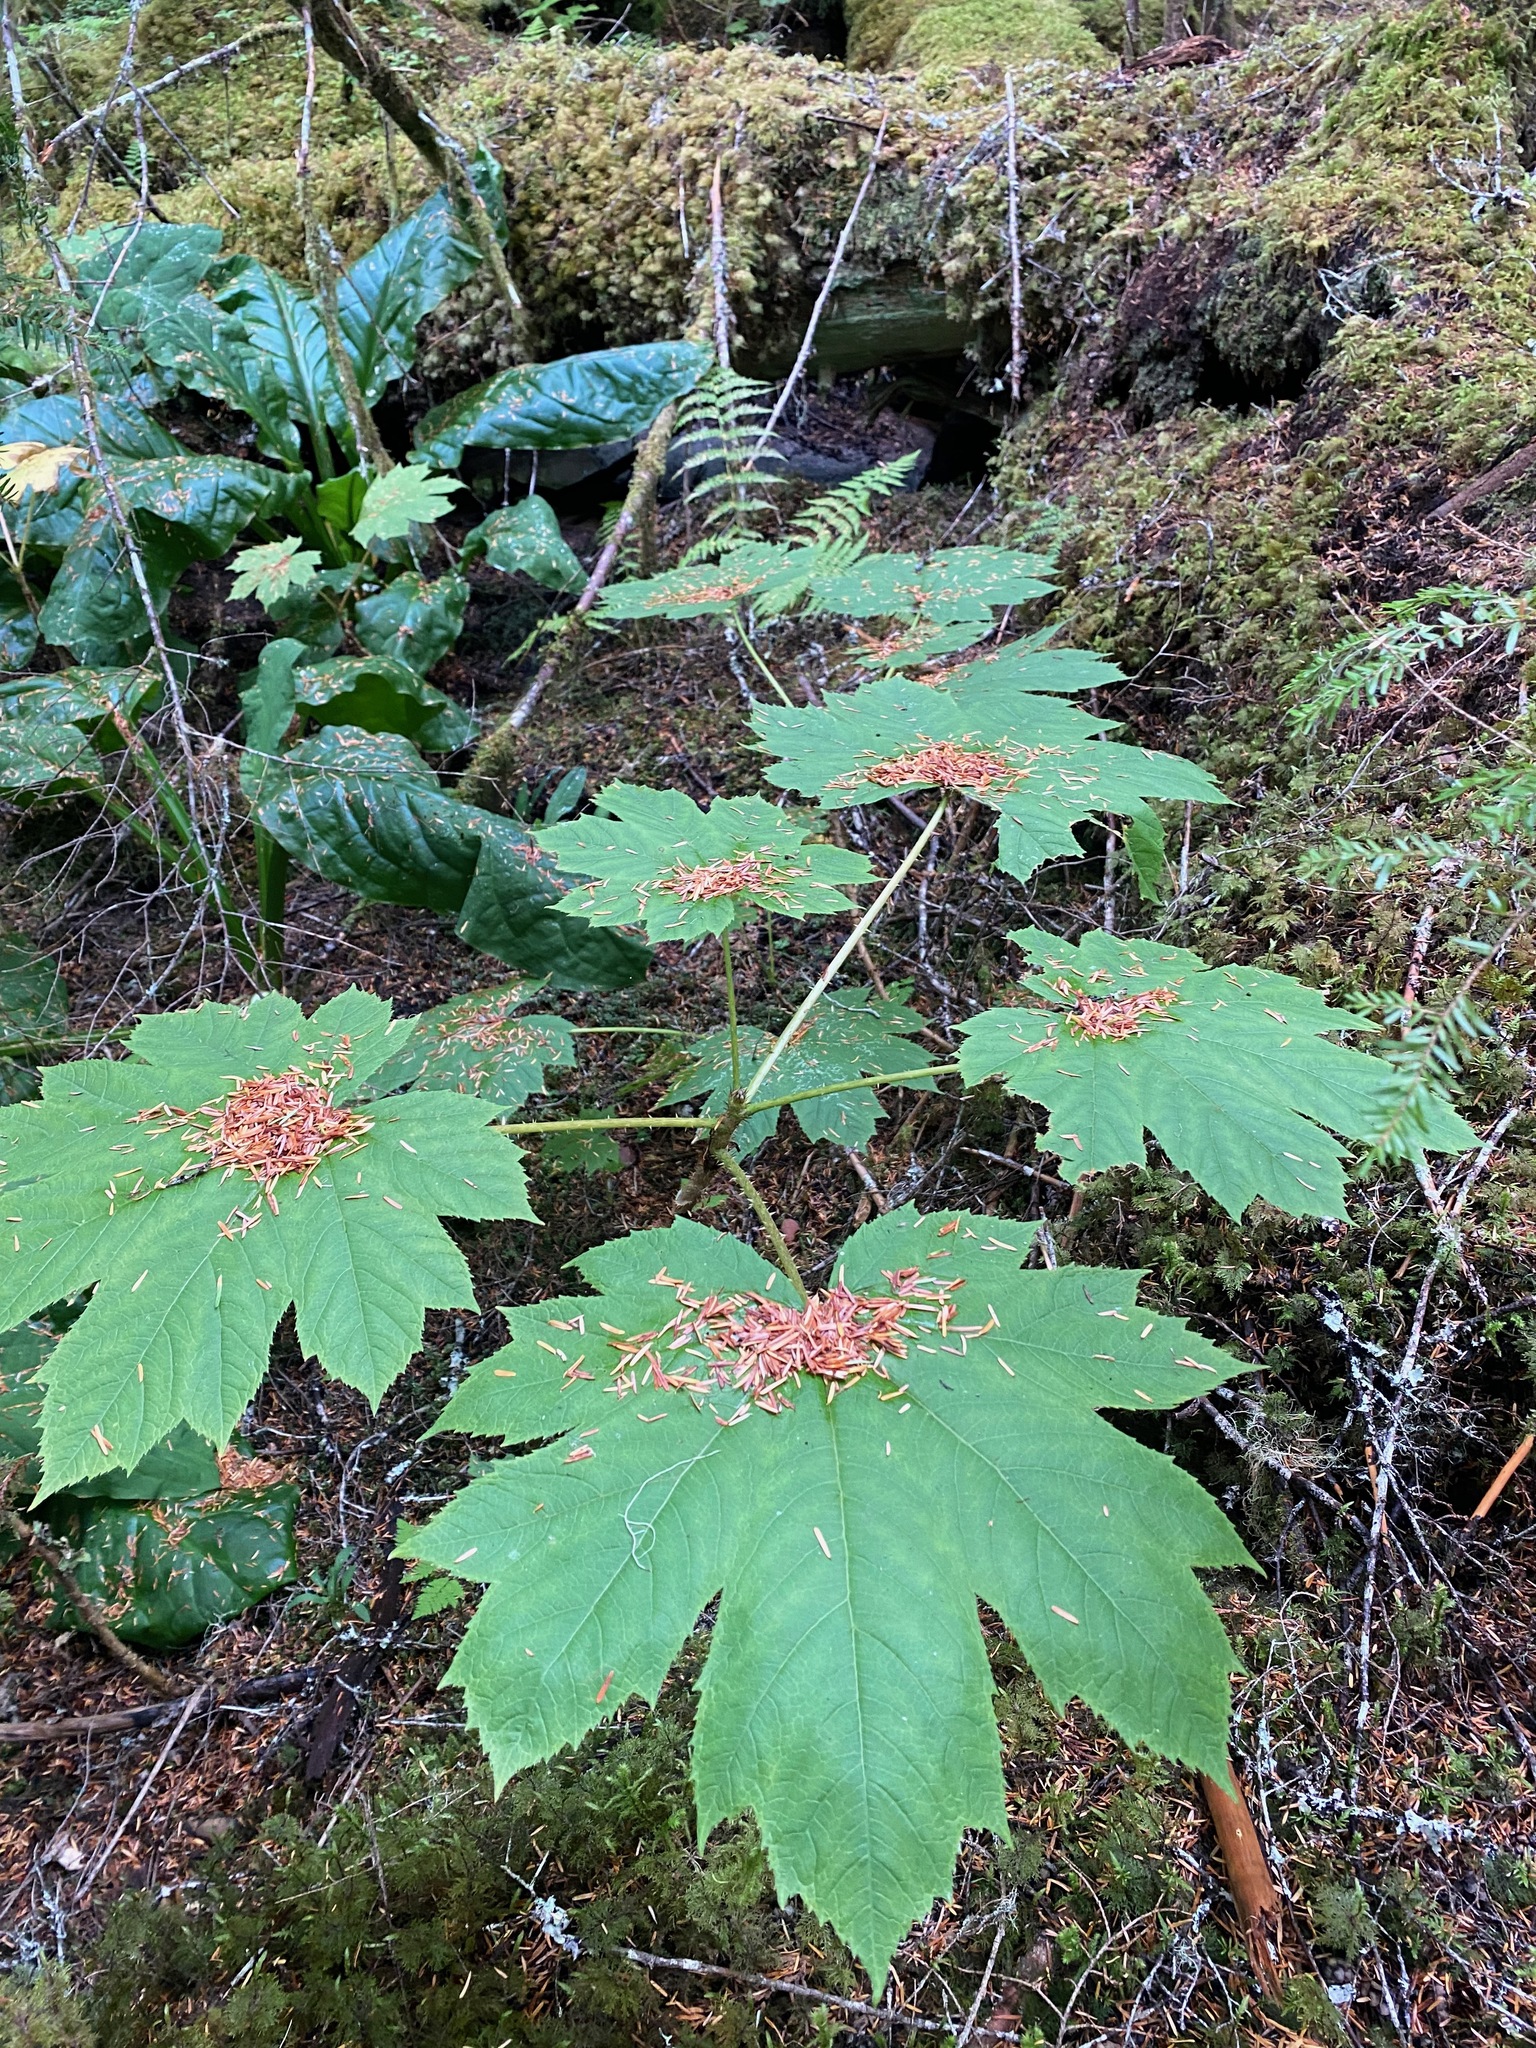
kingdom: Plantae
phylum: Tracheophyta
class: Magnoliopsida
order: Apiales
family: Araliaceae
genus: Oplopanax
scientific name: Oplopanax horridus
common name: Devil's walking-stick
